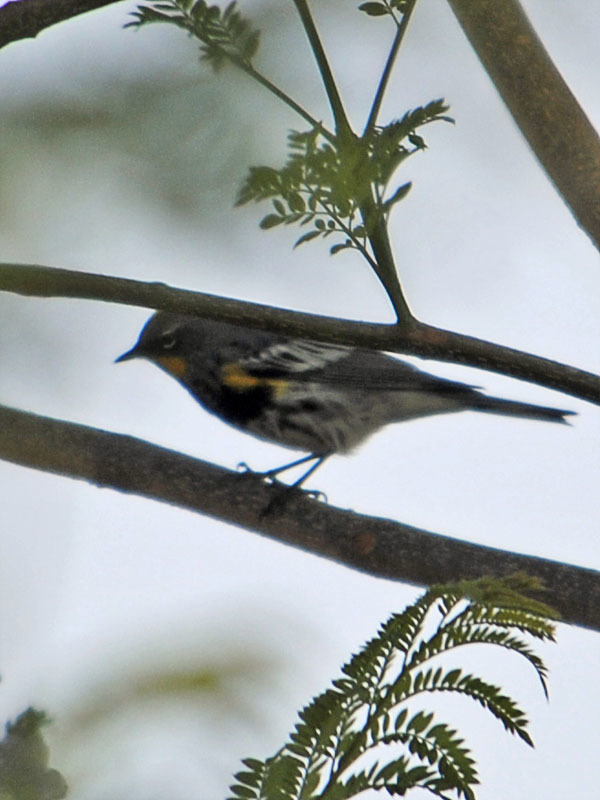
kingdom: Animalia
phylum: Chordata
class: Aves
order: Passeriformes
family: Parulidae
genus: Setophaga
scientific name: Setophaga auduboni
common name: Audubon's warbler
